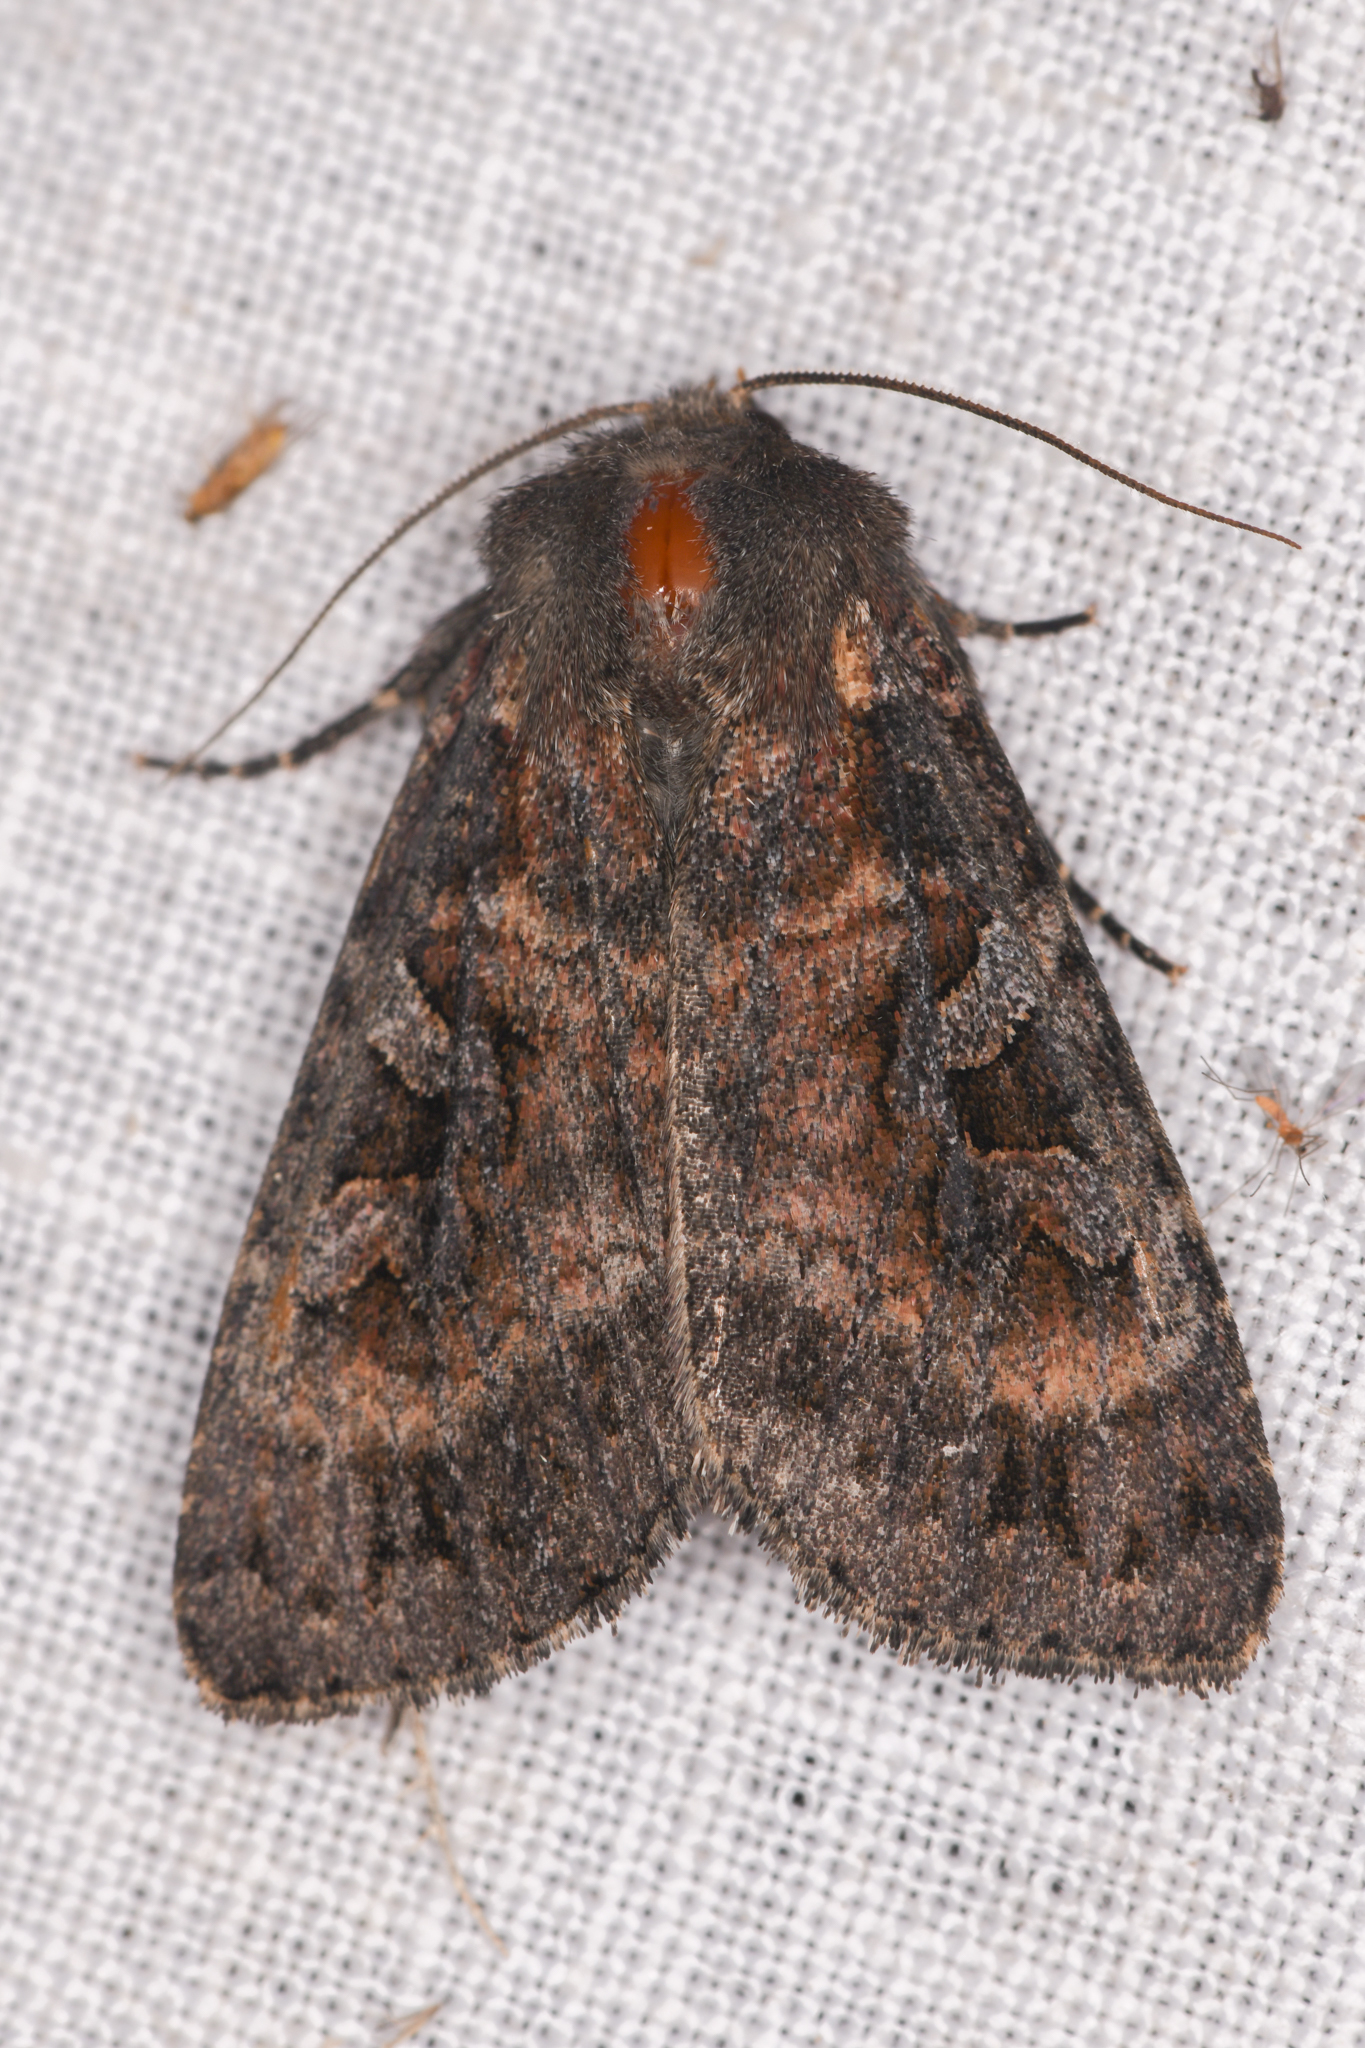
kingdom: Animalia
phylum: Arthropoda
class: Insecta
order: Lepidoptera
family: Noctuidae
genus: Eurois
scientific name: Eurois astricta
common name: Great brown dart
